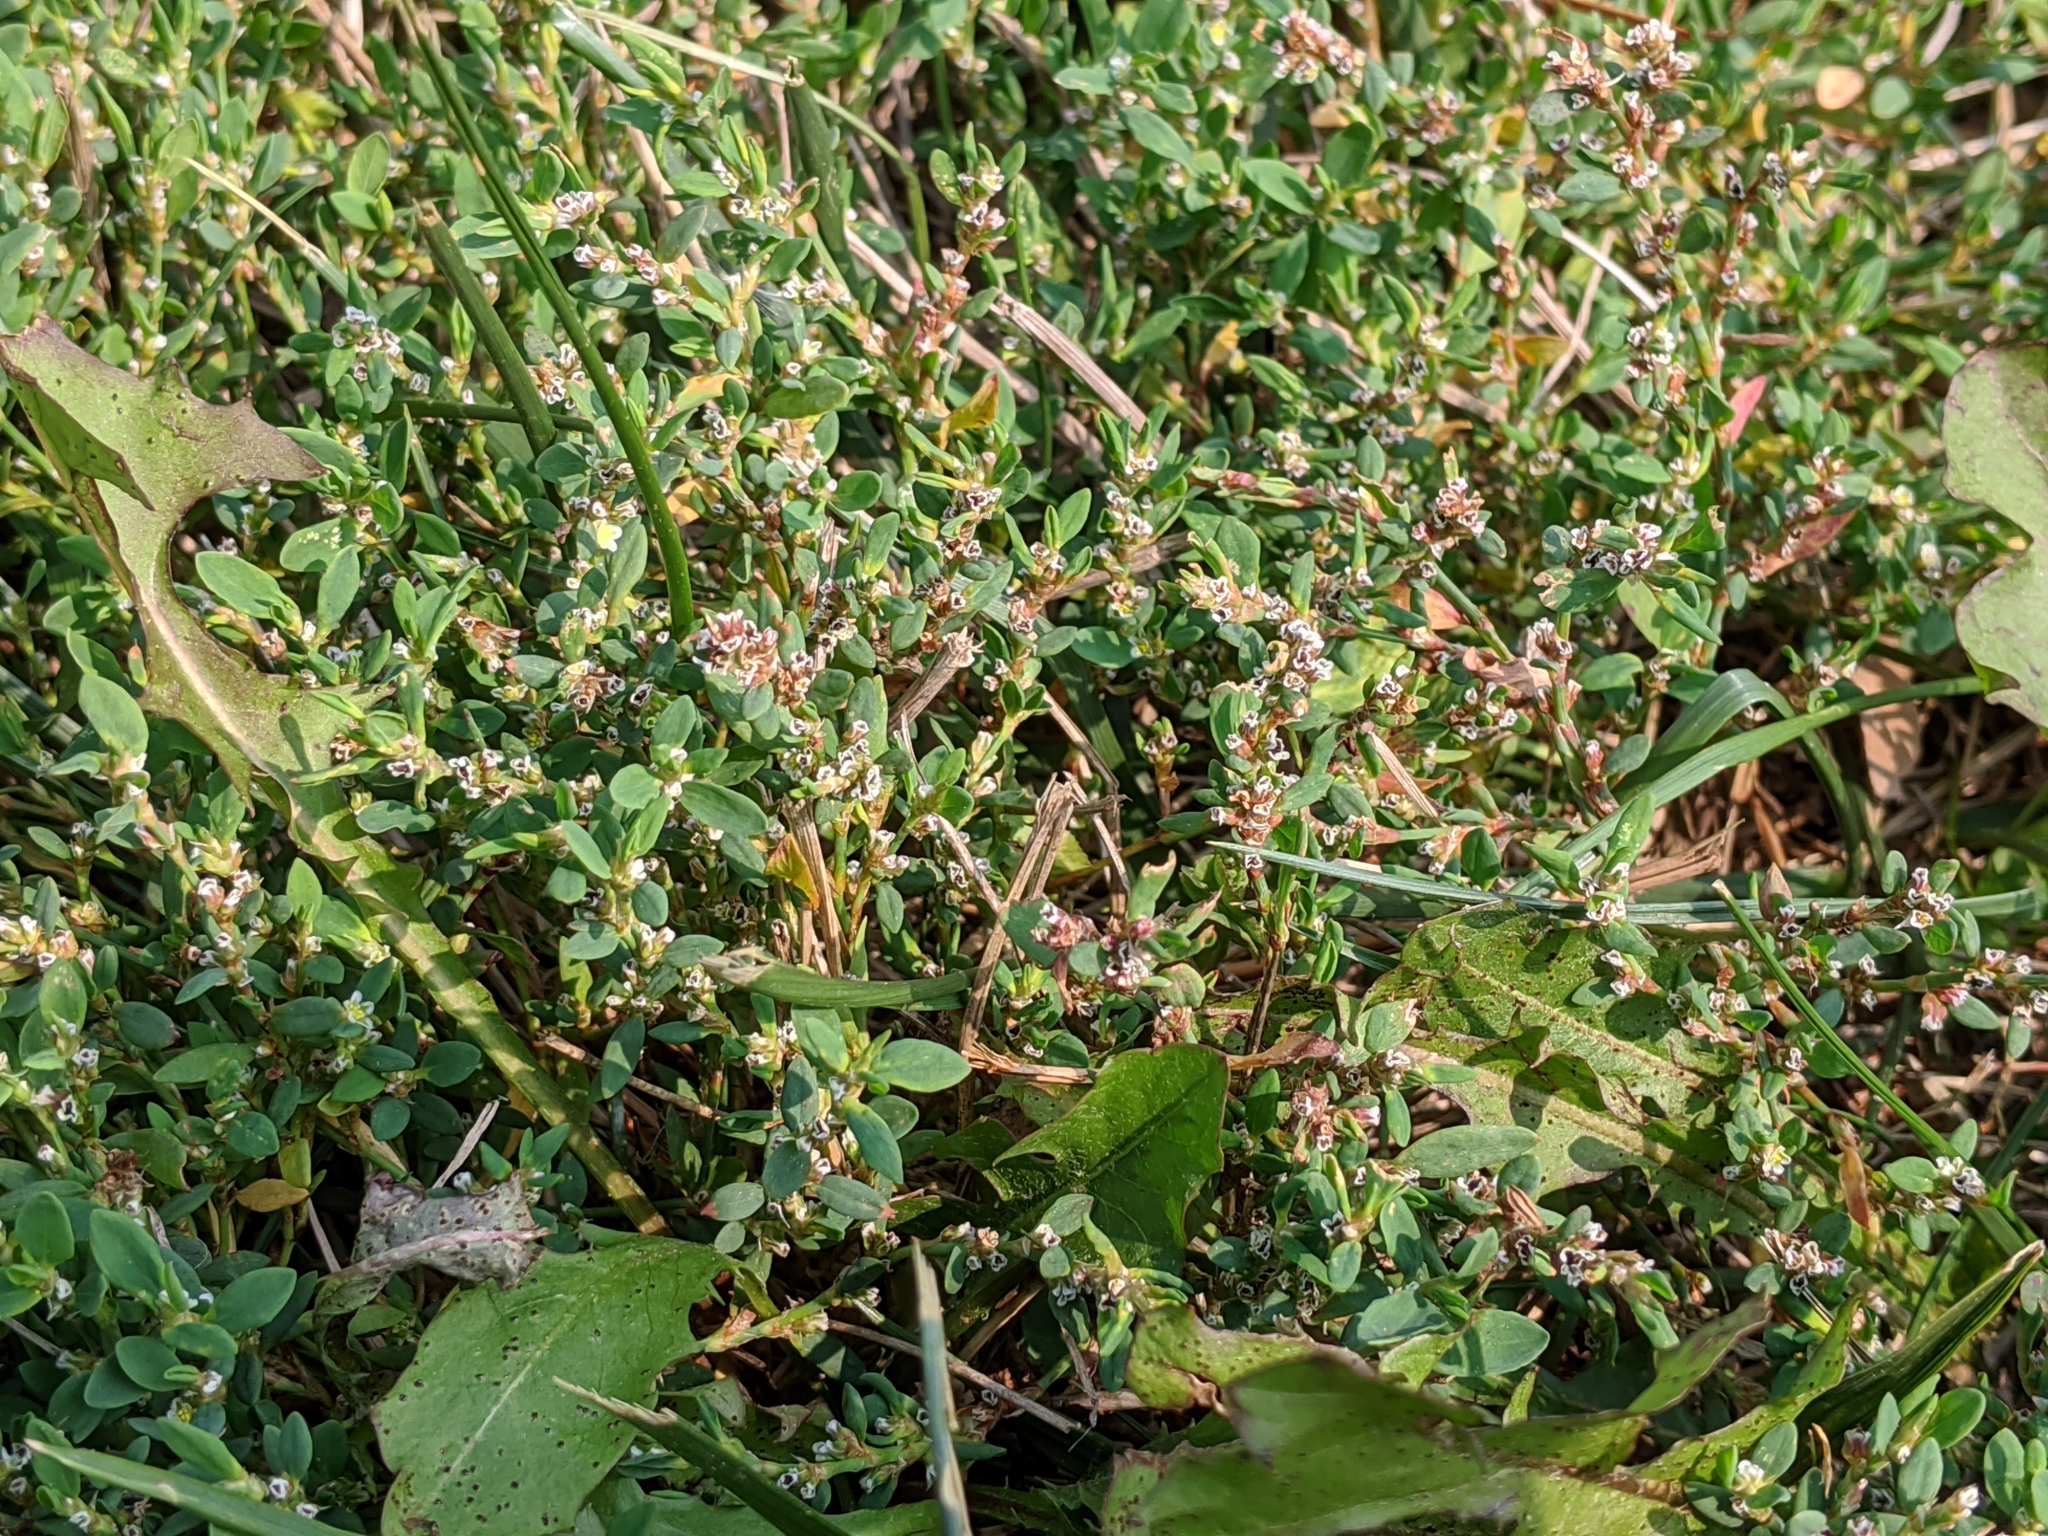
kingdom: Plantae
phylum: Tracheophyta
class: Magnoliopsida
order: Caryophyllales
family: Polygonaceae
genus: Polygonum
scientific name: Polygonum aviculare
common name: Prostrate knotweed
